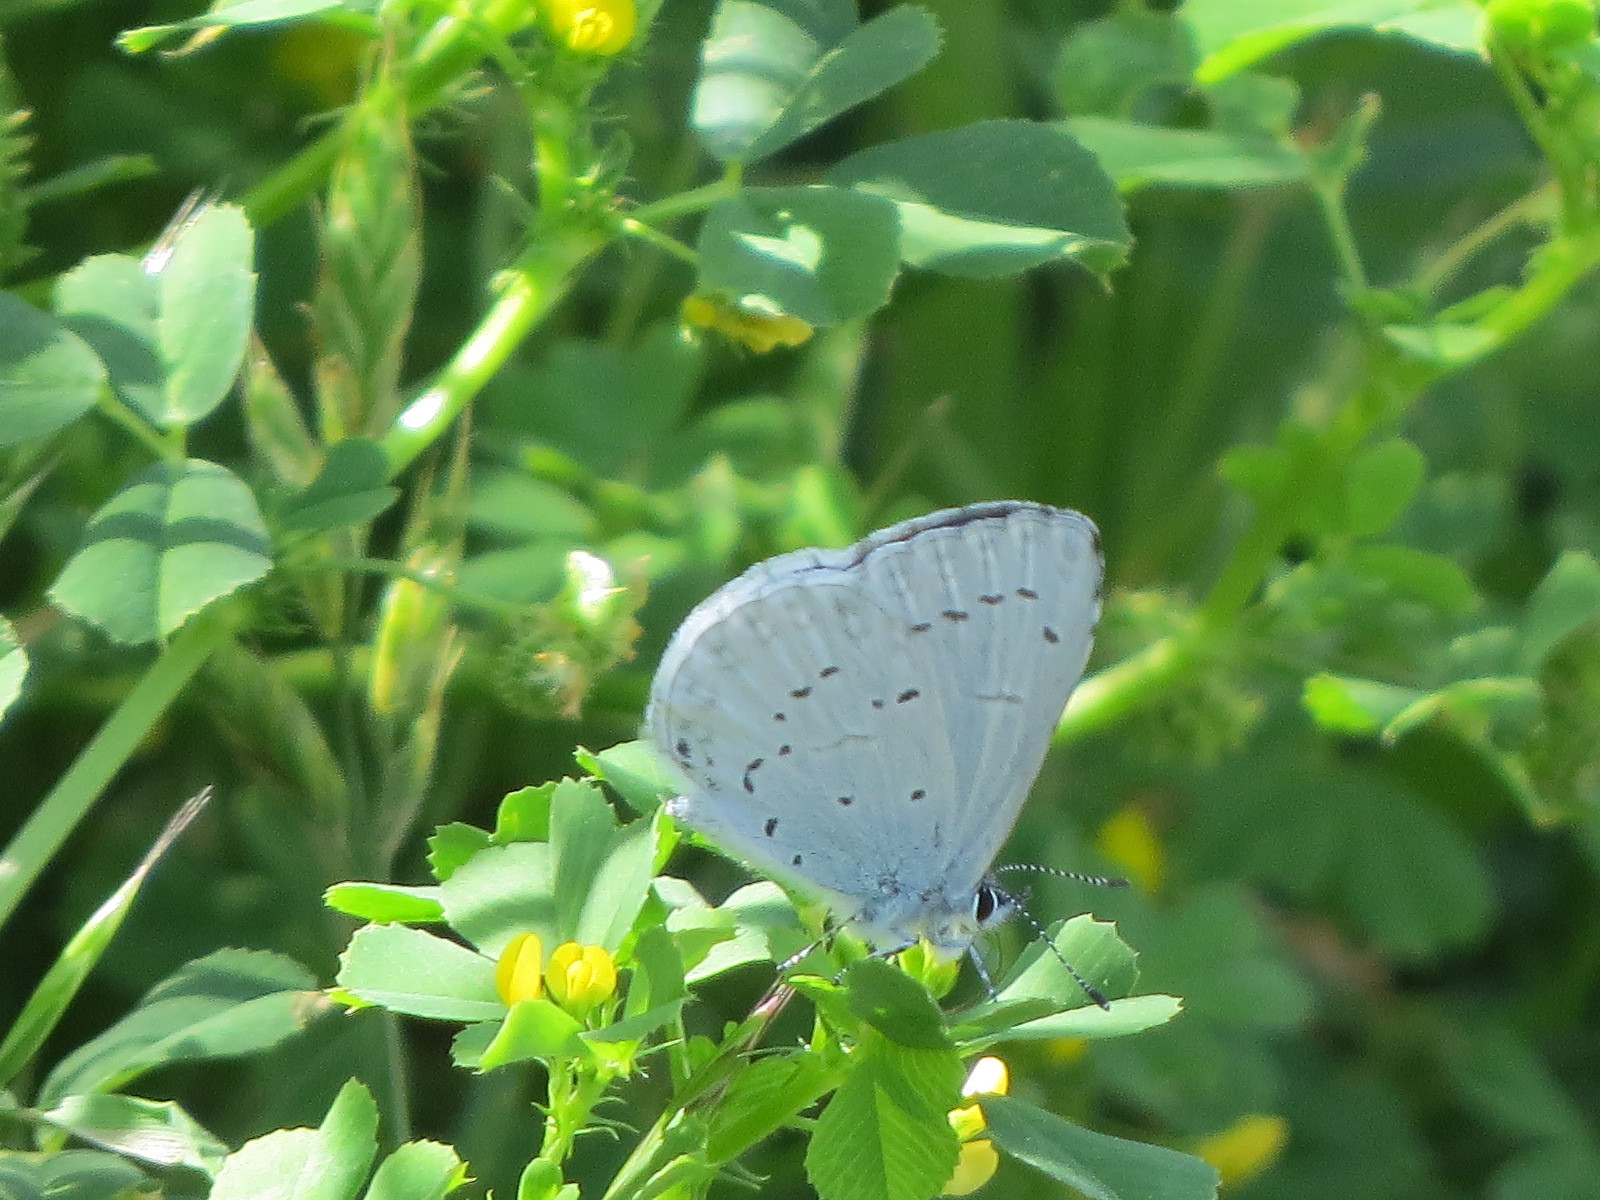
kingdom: Animalia
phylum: Arthropoda
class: Insecta
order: Lepidoptera
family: Lycaenidae
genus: Celastrina
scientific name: Celastrina ladon
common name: Spring azure
